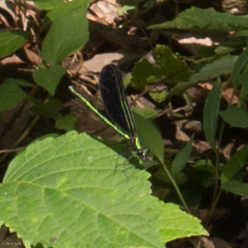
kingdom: Animalia
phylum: Arthropoda
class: Insecta
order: Odonata
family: Calopterygidae
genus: Calopteryx
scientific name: Calopteryx maculata
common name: Ebony jewelwing
